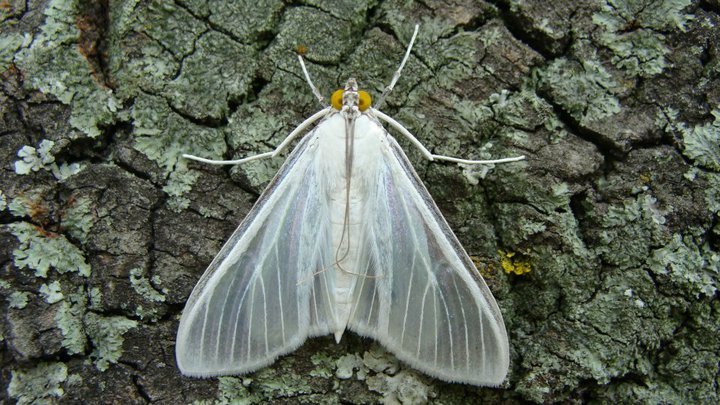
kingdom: Animalia
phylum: Arthropoda
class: Insecta
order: Lepidoptera
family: Crambidae
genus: Palpita
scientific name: Palpita flegia
